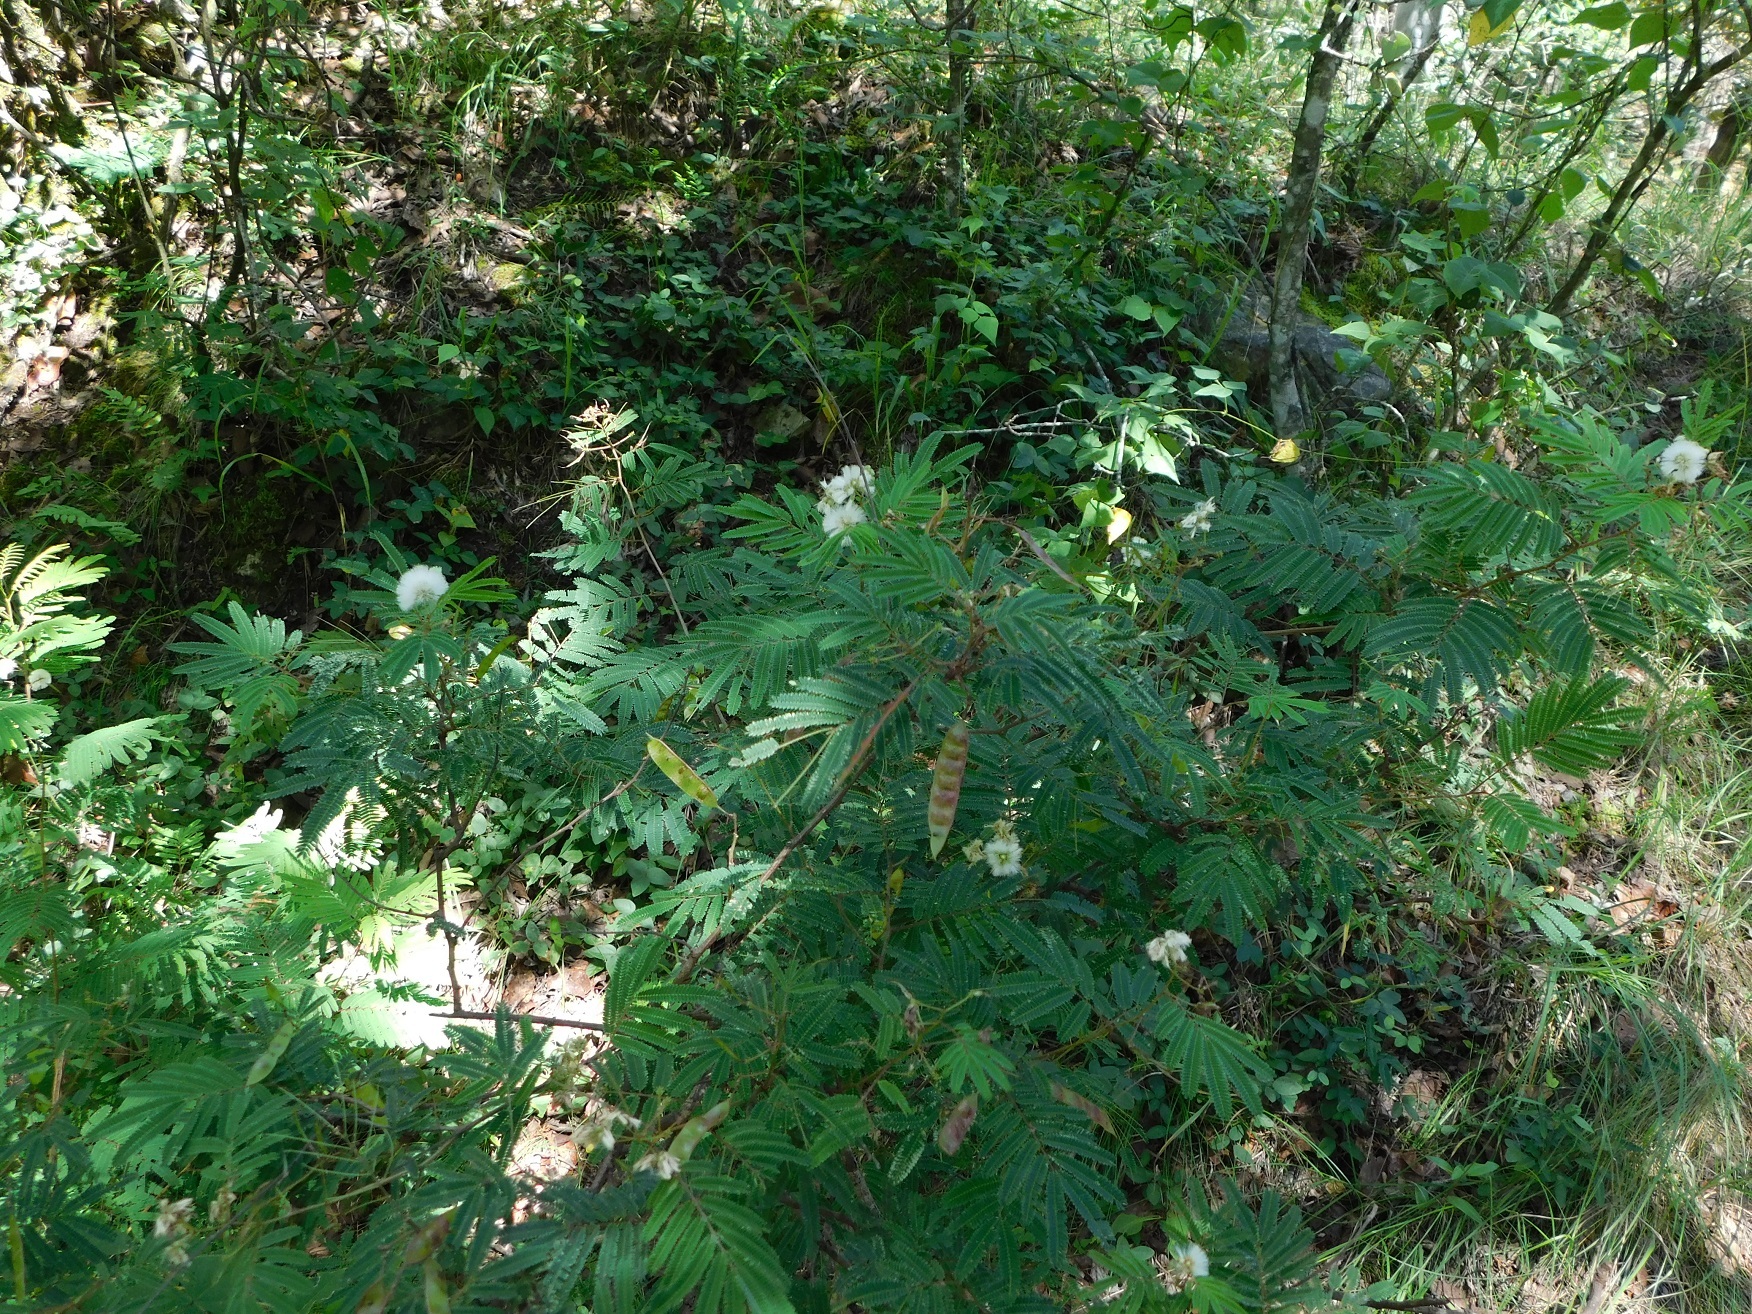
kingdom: Plantae
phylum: Tracheophyta
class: Magnoliopsida
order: Fabales
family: Fabaceae
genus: Acaciella
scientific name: Acaciella angustissima
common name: Prairie acacia
